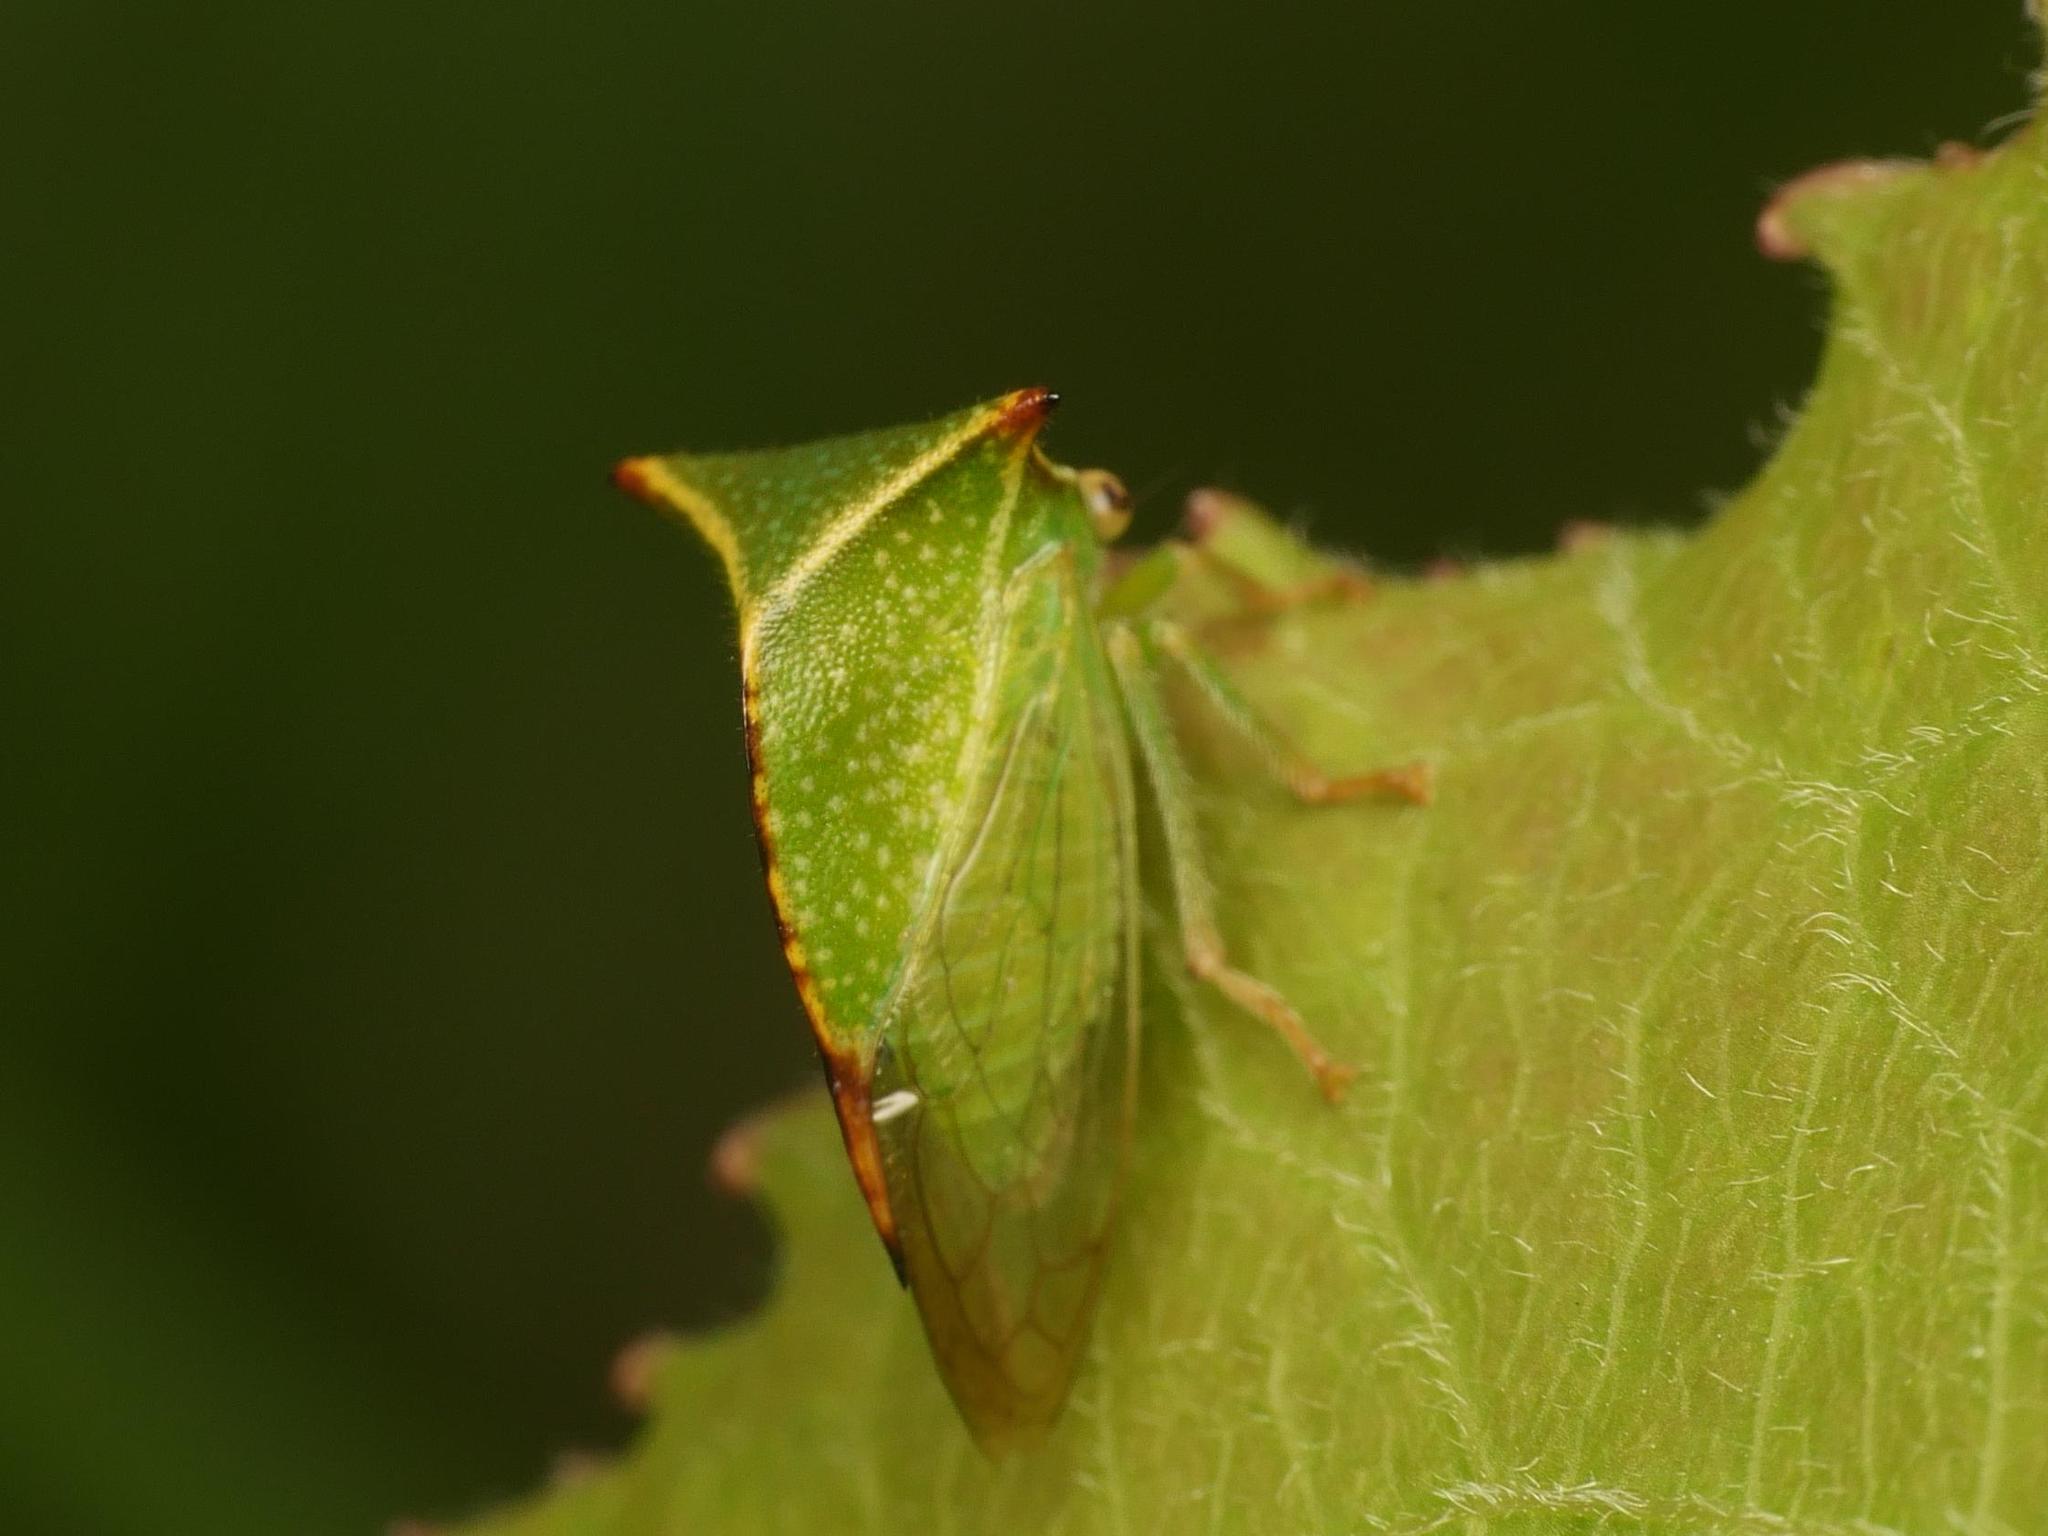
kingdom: Animalia
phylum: Arthropoda
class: Insecta
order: Hemiptera
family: Membracidae
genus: Stictocephala
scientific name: Stictocephala bisonia
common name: American buffalo treehopper
